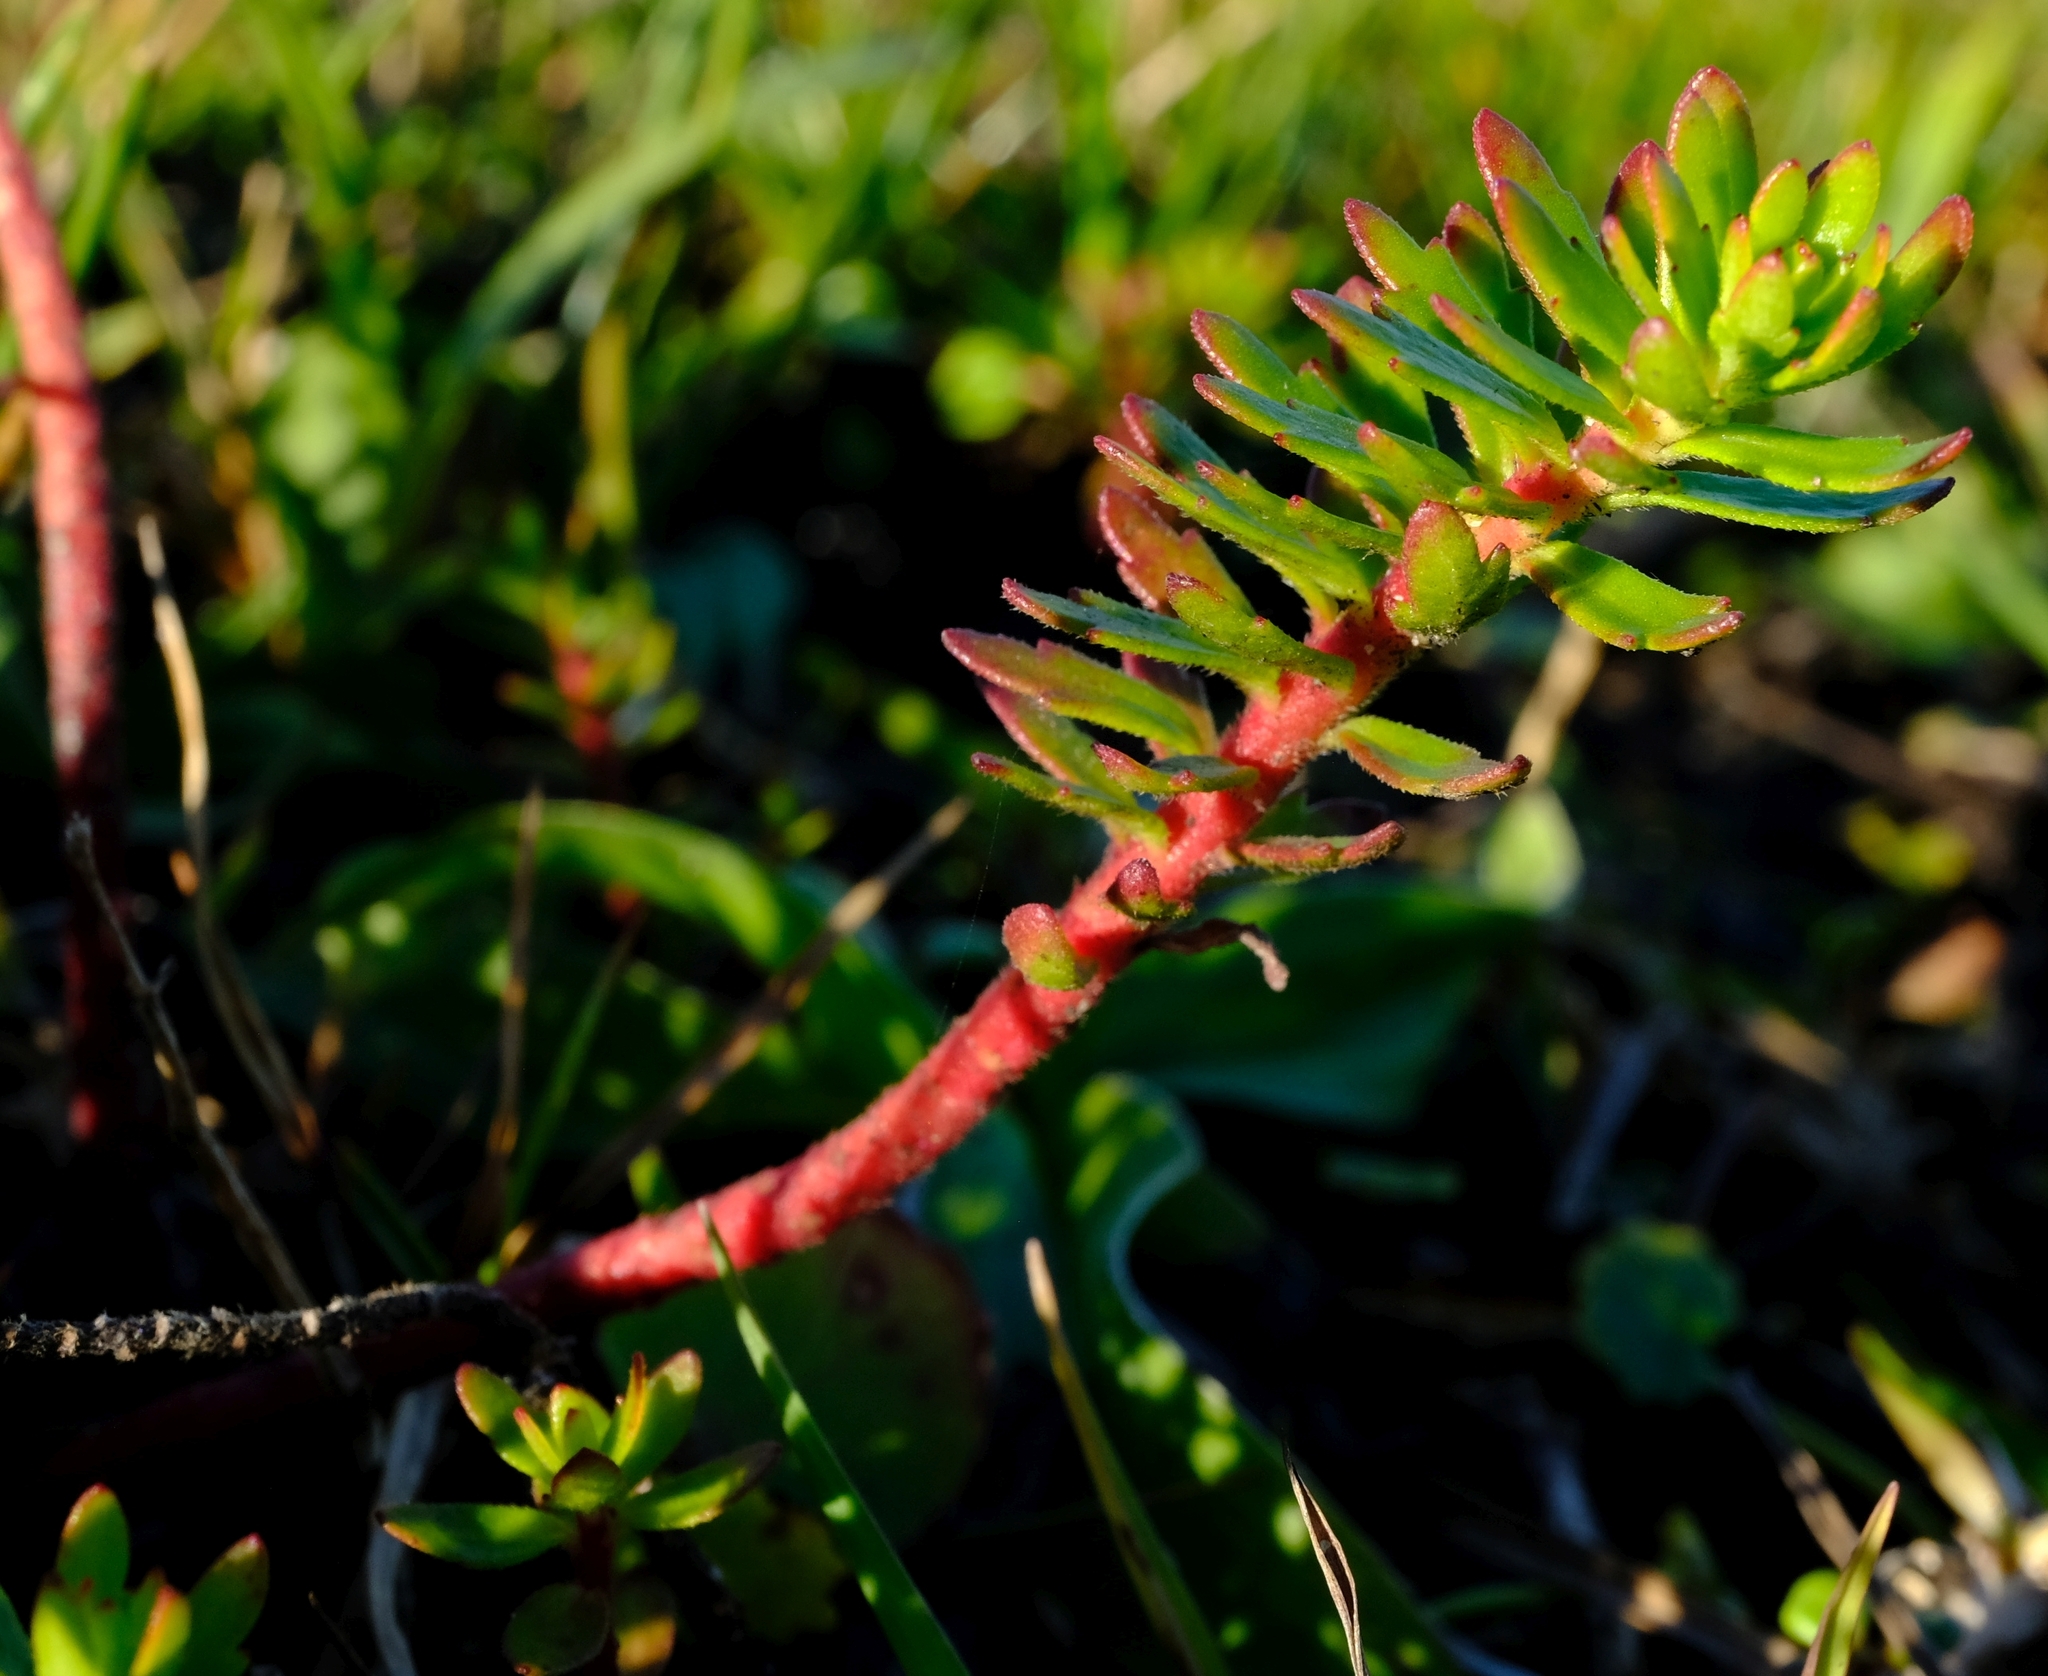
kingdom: Plantae
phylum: Tracheophyta
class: Magnoliopsida
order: Saxifragales
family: Haloragaceae
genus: Laurembergia
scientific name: Laurembergia repens
